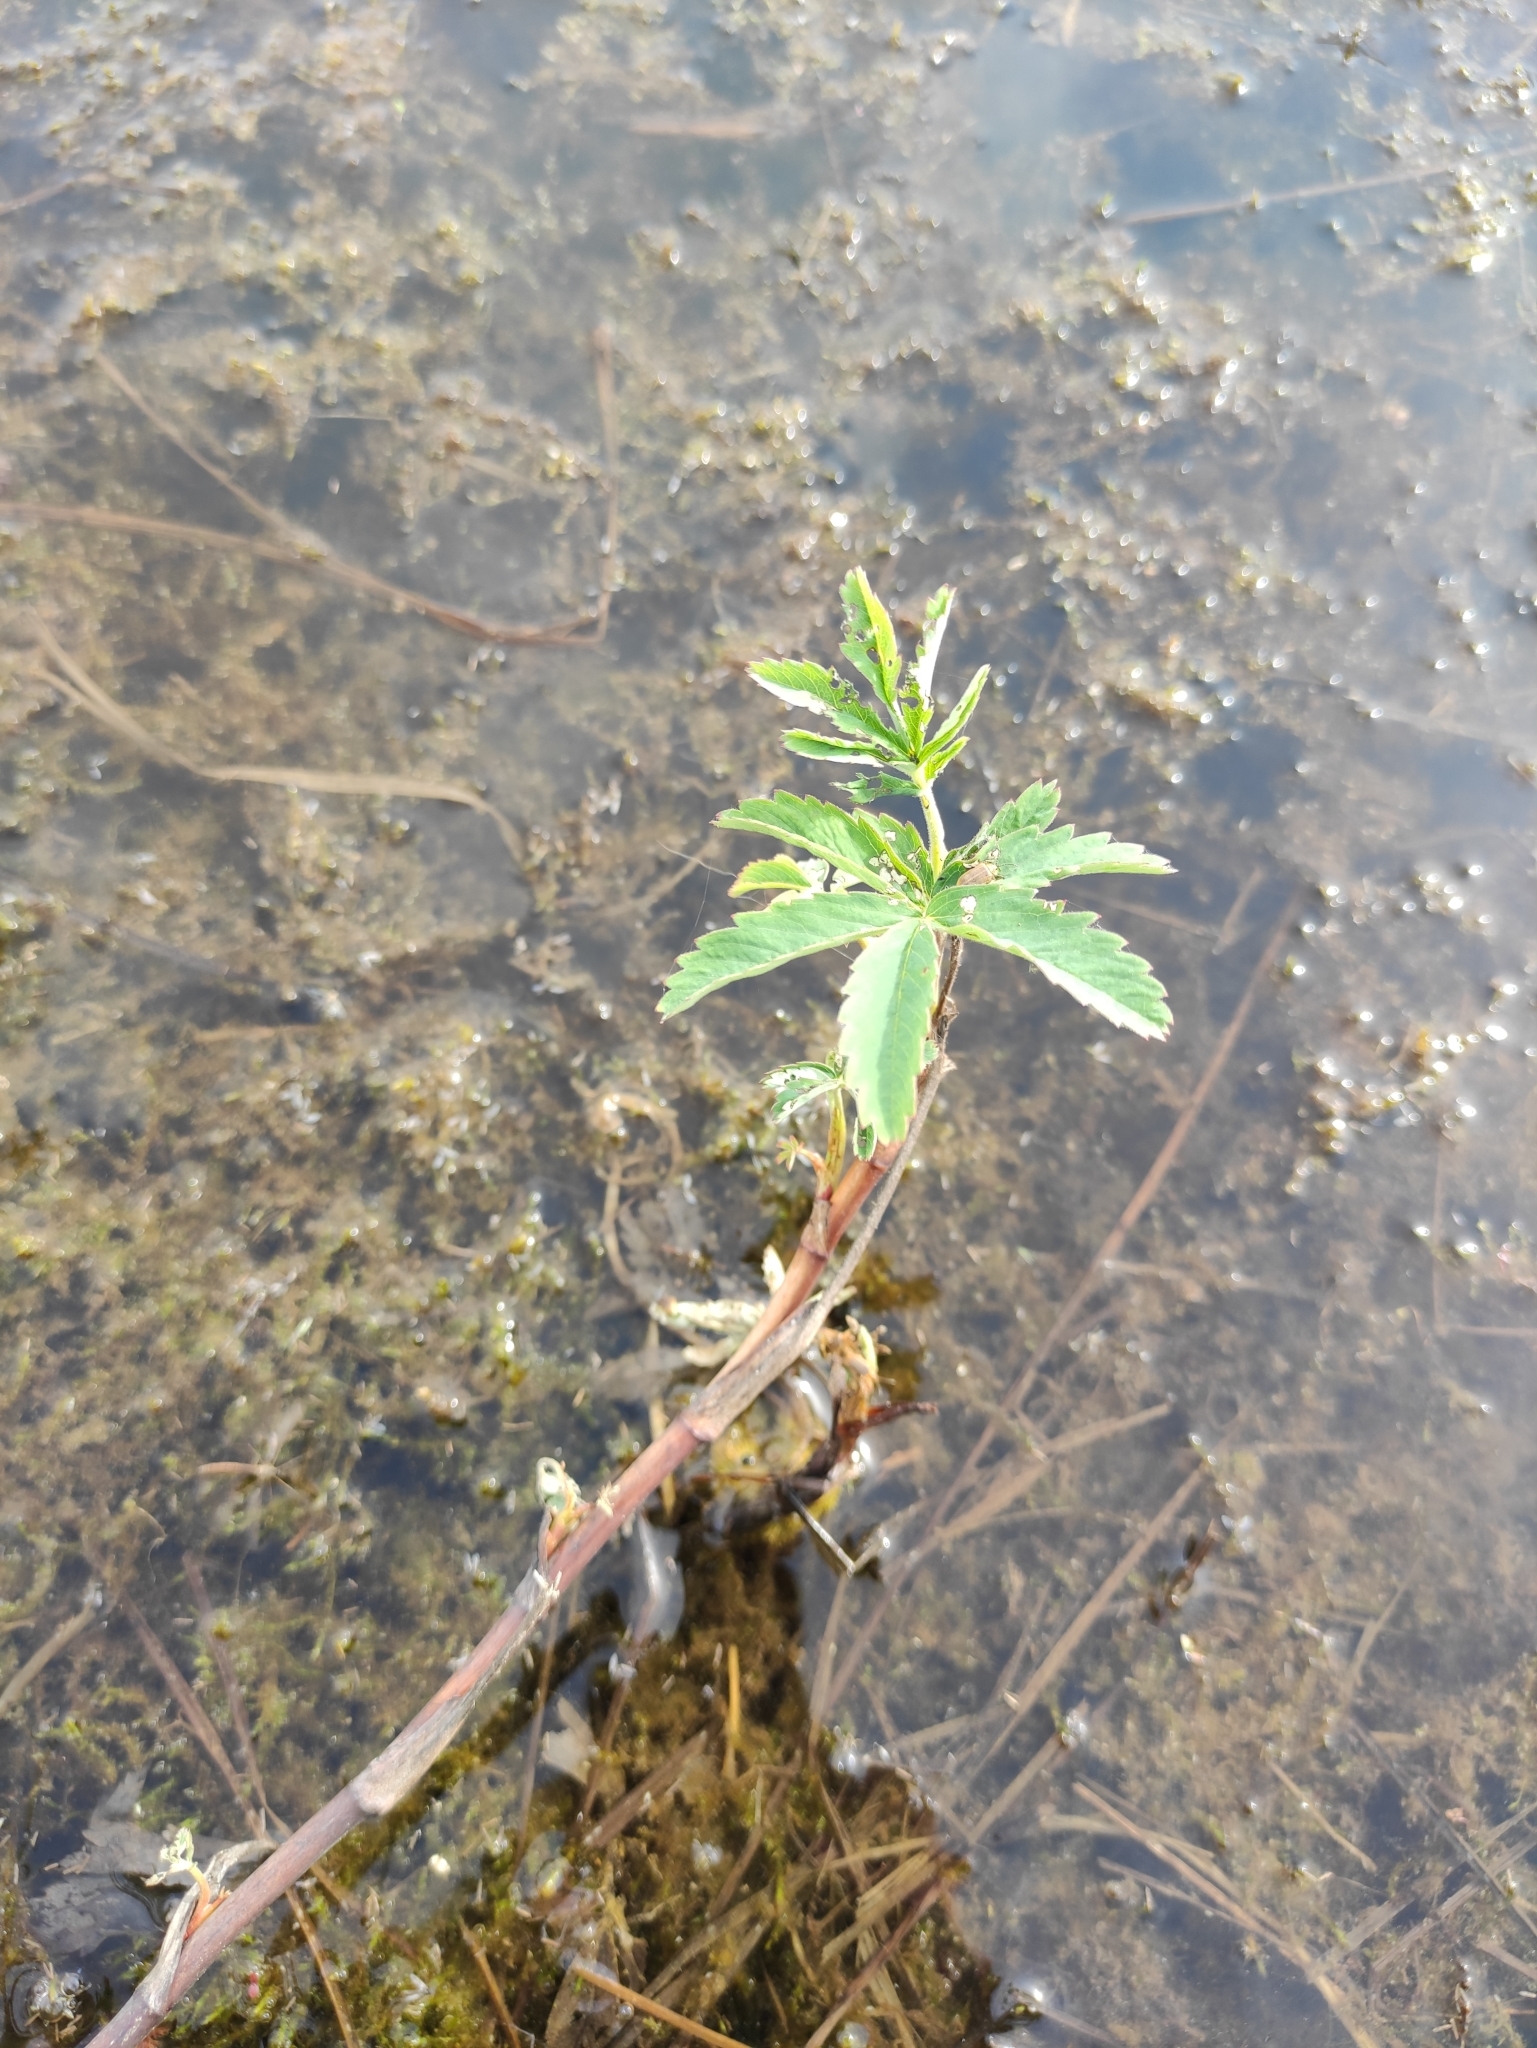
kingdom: Plantae
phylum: Tracheophyta
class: Magnoliopsida
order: Rosales
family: Rosaceae
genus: Comarum
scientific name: Comarum palustre
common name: Marsh cinquefoil
